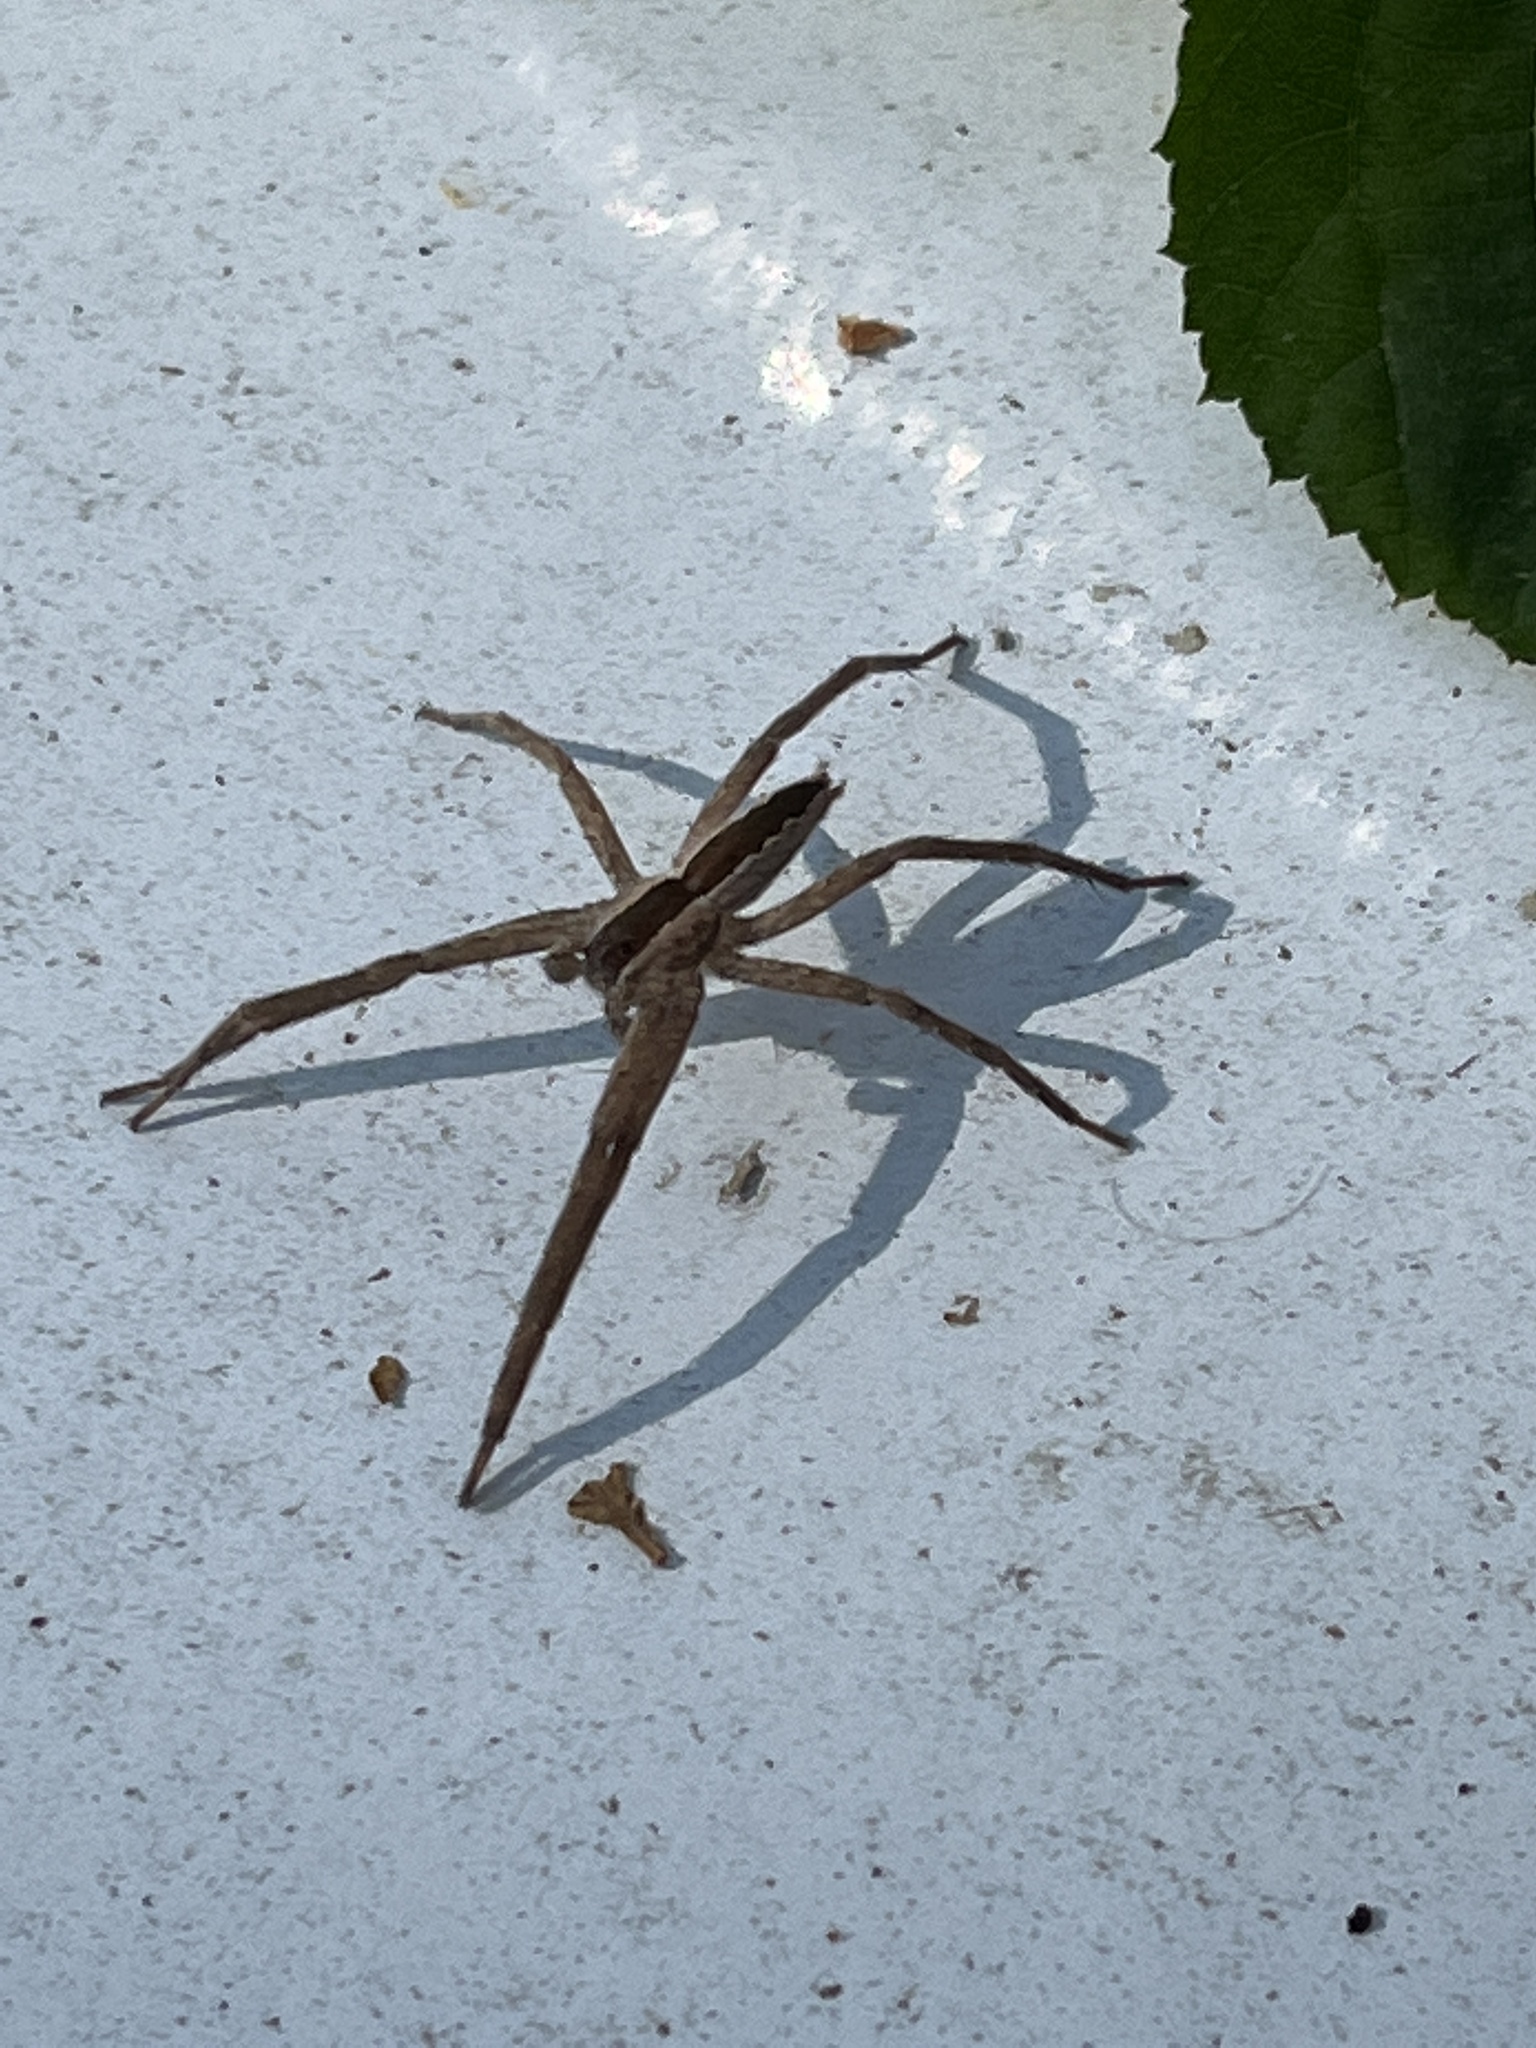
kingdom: Animalia
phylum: Arthropoda
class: Arachnida
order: Araneae
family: Pisauridae
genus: Pisaurina
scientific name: Pisaurina mira
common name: American nursery web spider
